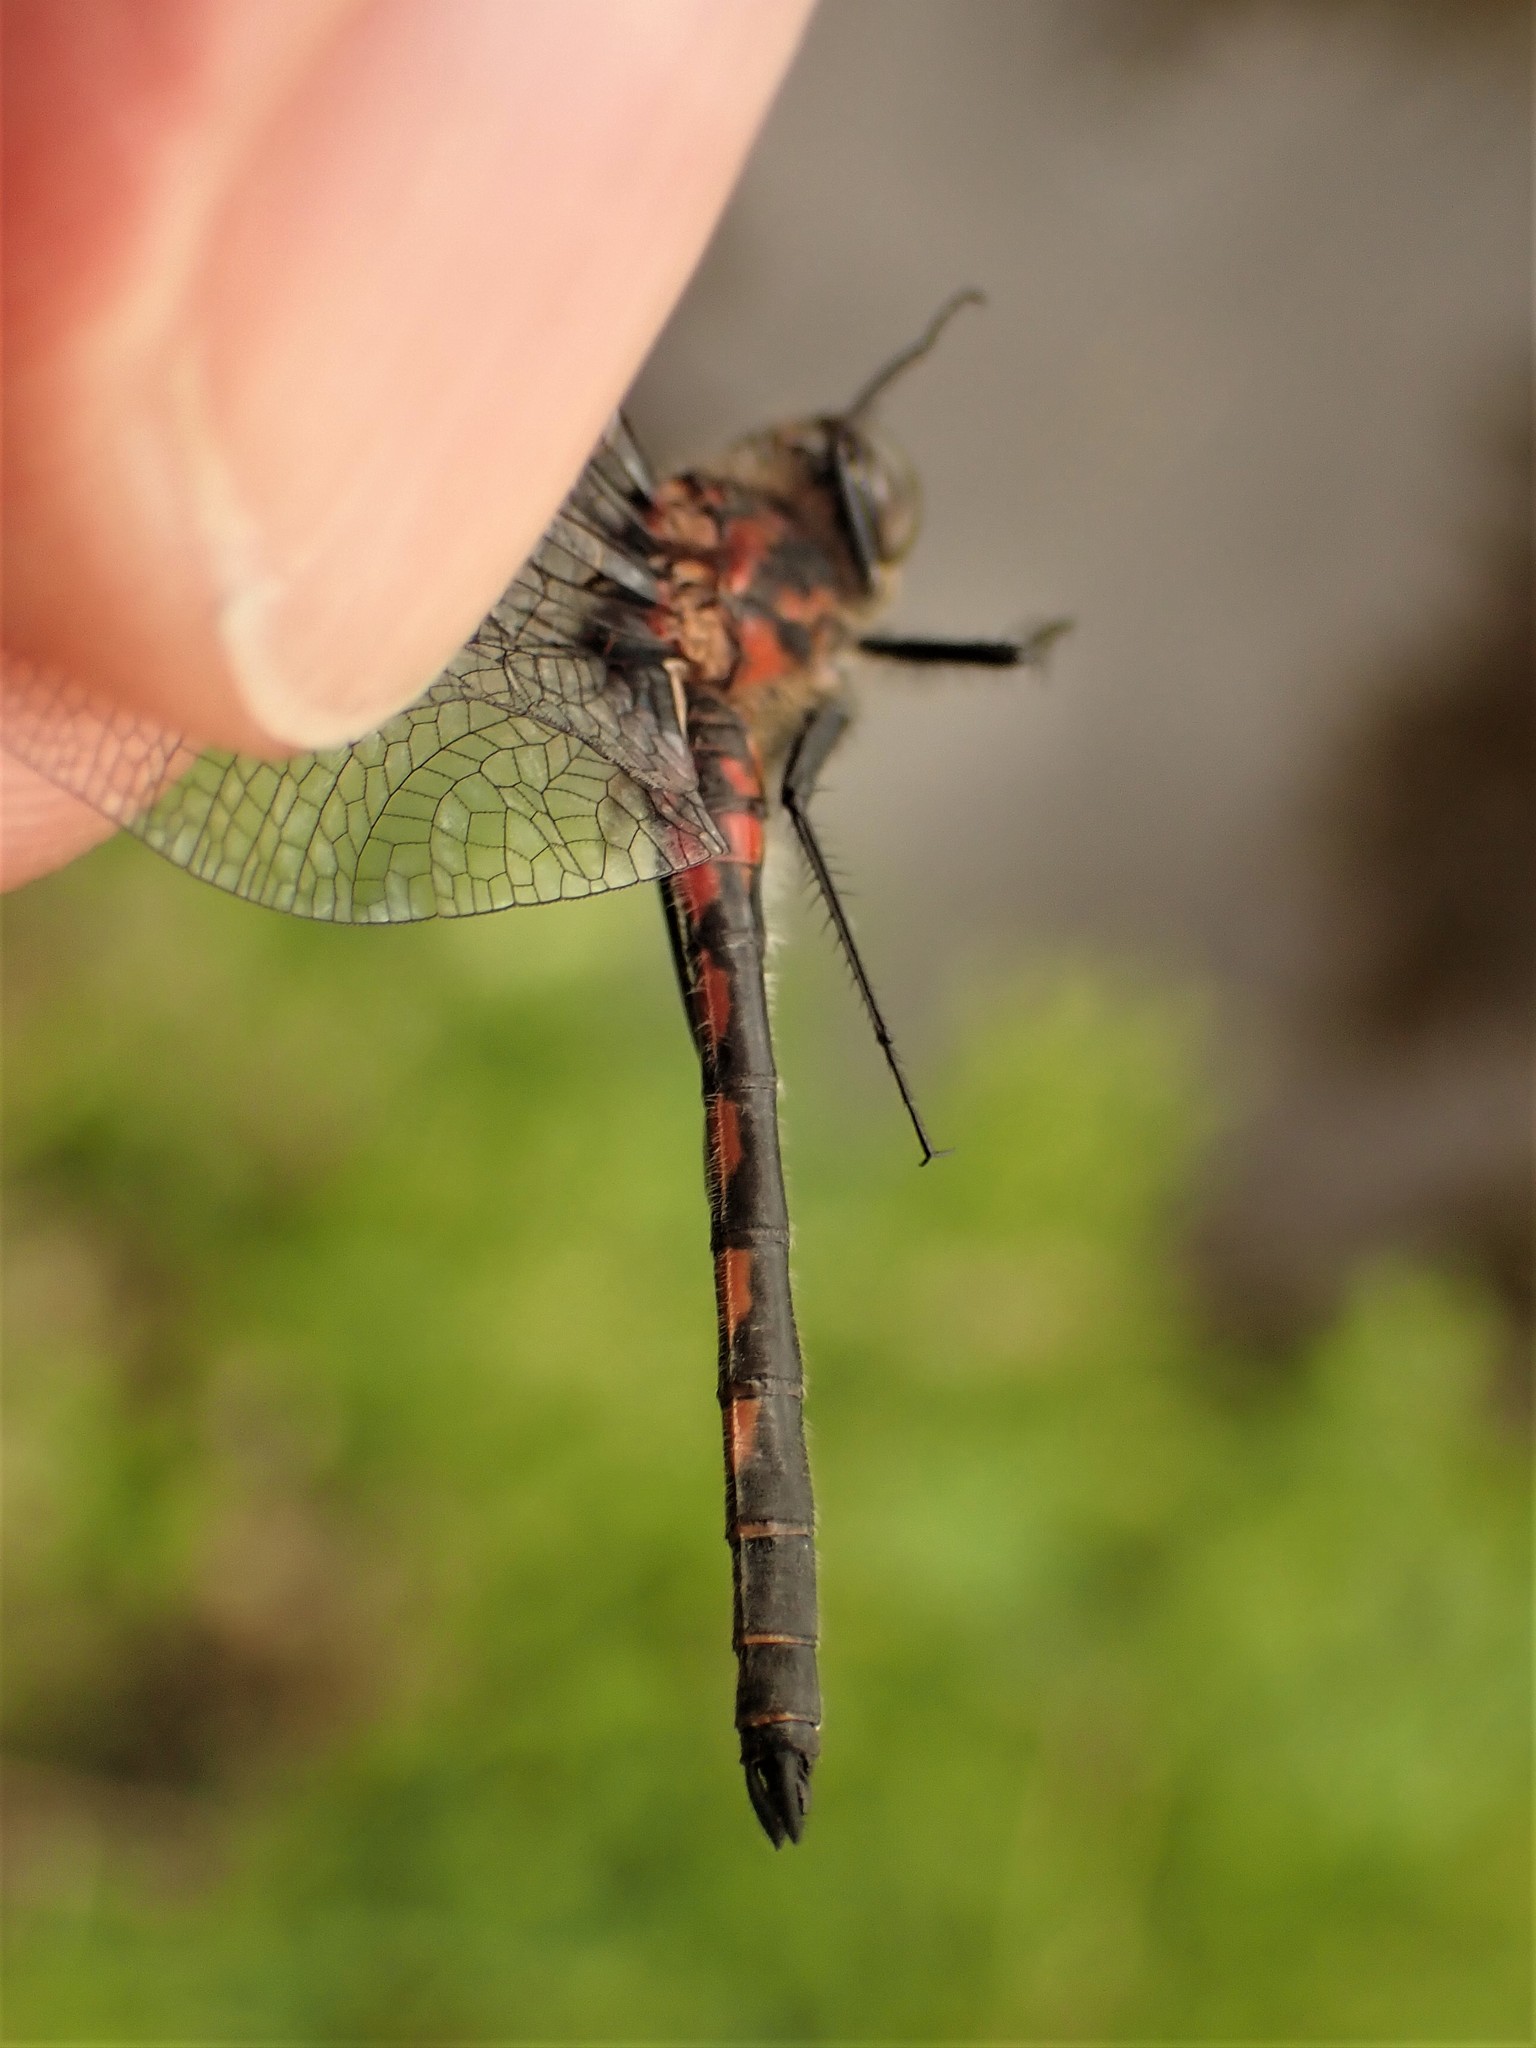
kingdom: Animalia
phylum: Arthropoda
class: Insecta
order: Odonata
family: Libellulidae
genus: Leucorrhinia
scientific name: Leucorrhinia hudsonica
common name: Hudsonian whiteface
